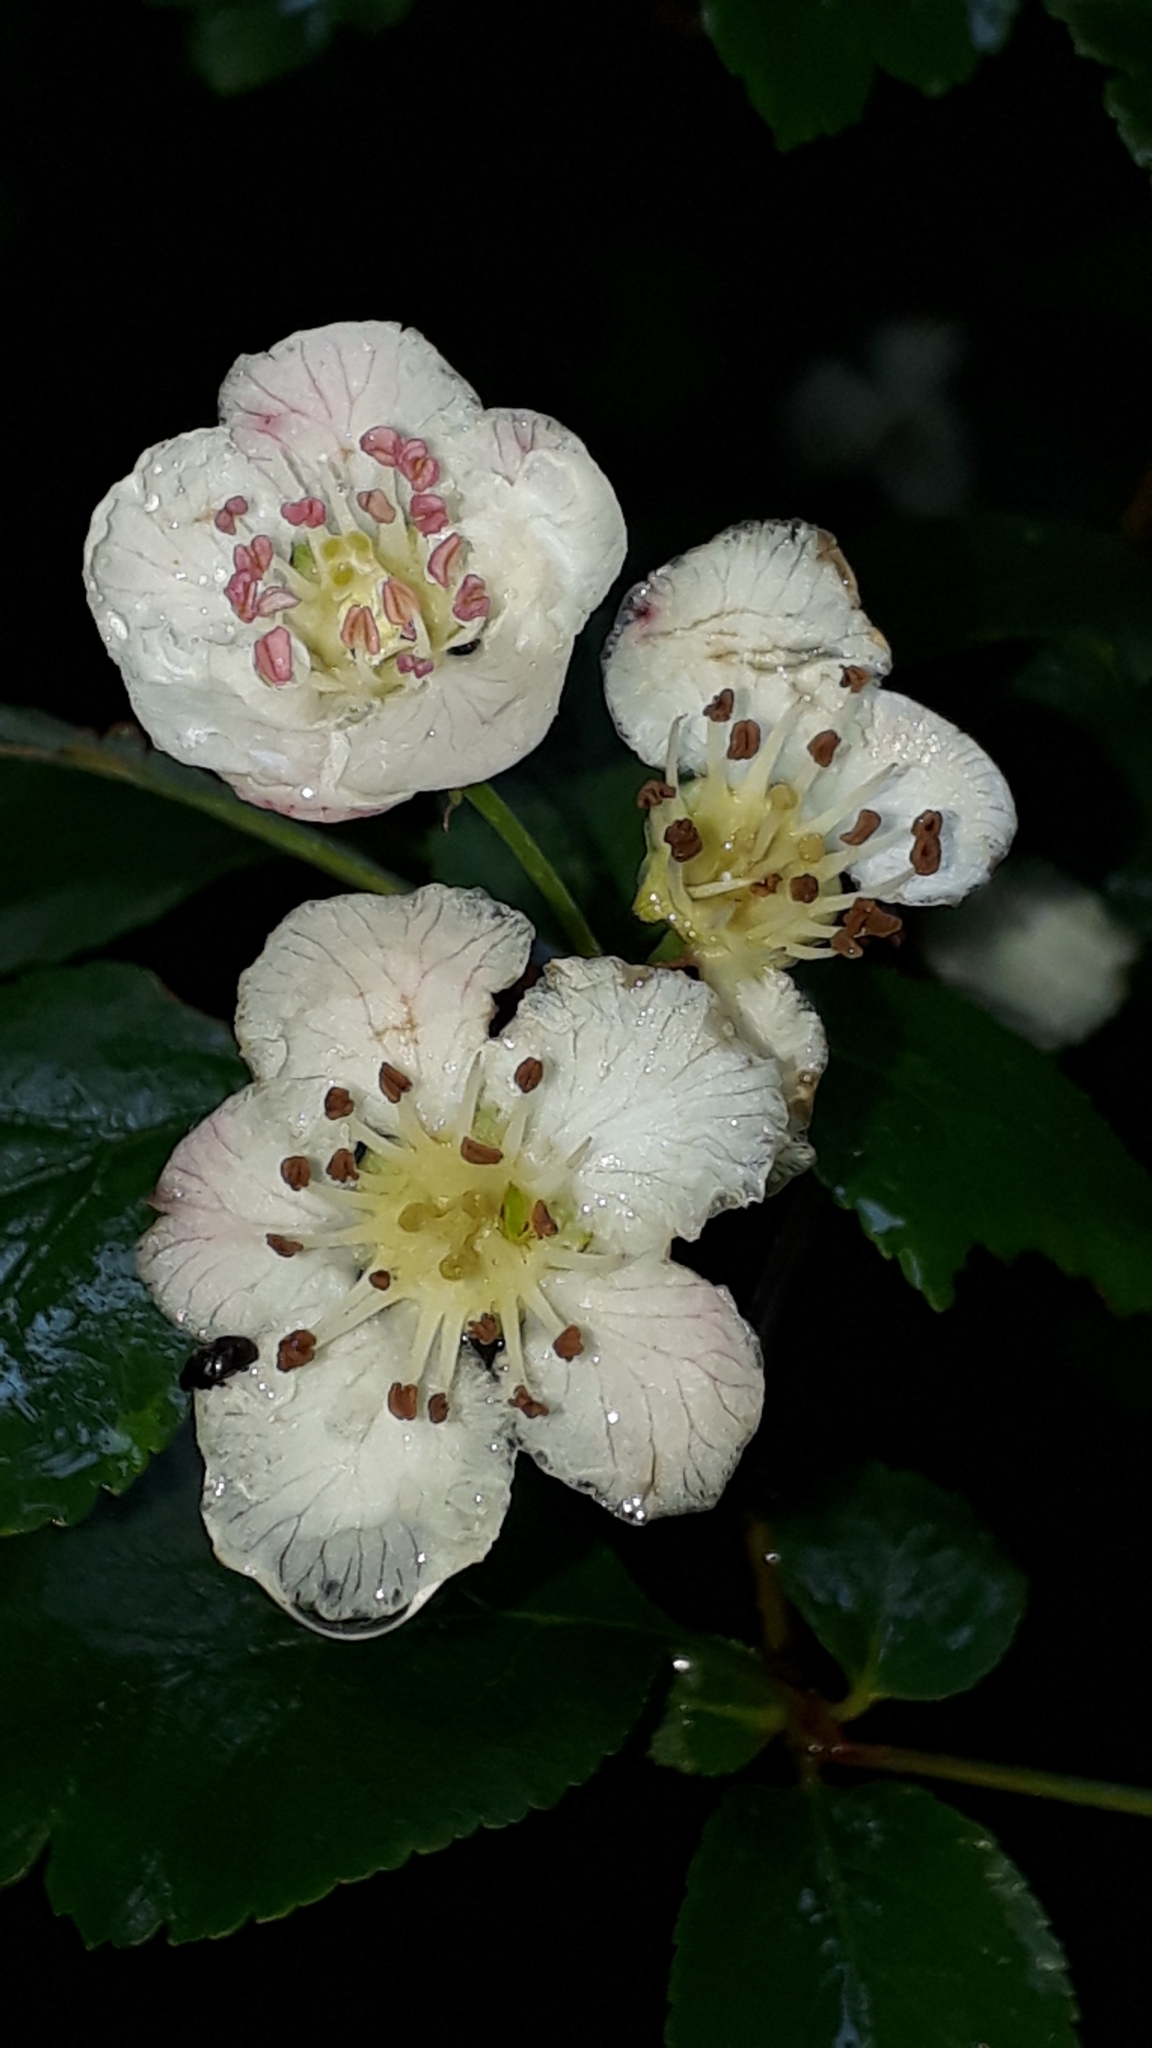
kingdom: Plantae
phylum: Tracheophyta
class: Magnoliopsida
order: Rosales
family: Rosaceae
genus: Crataegus
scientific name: Crataegus laevigata
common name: Midland hawthorn
